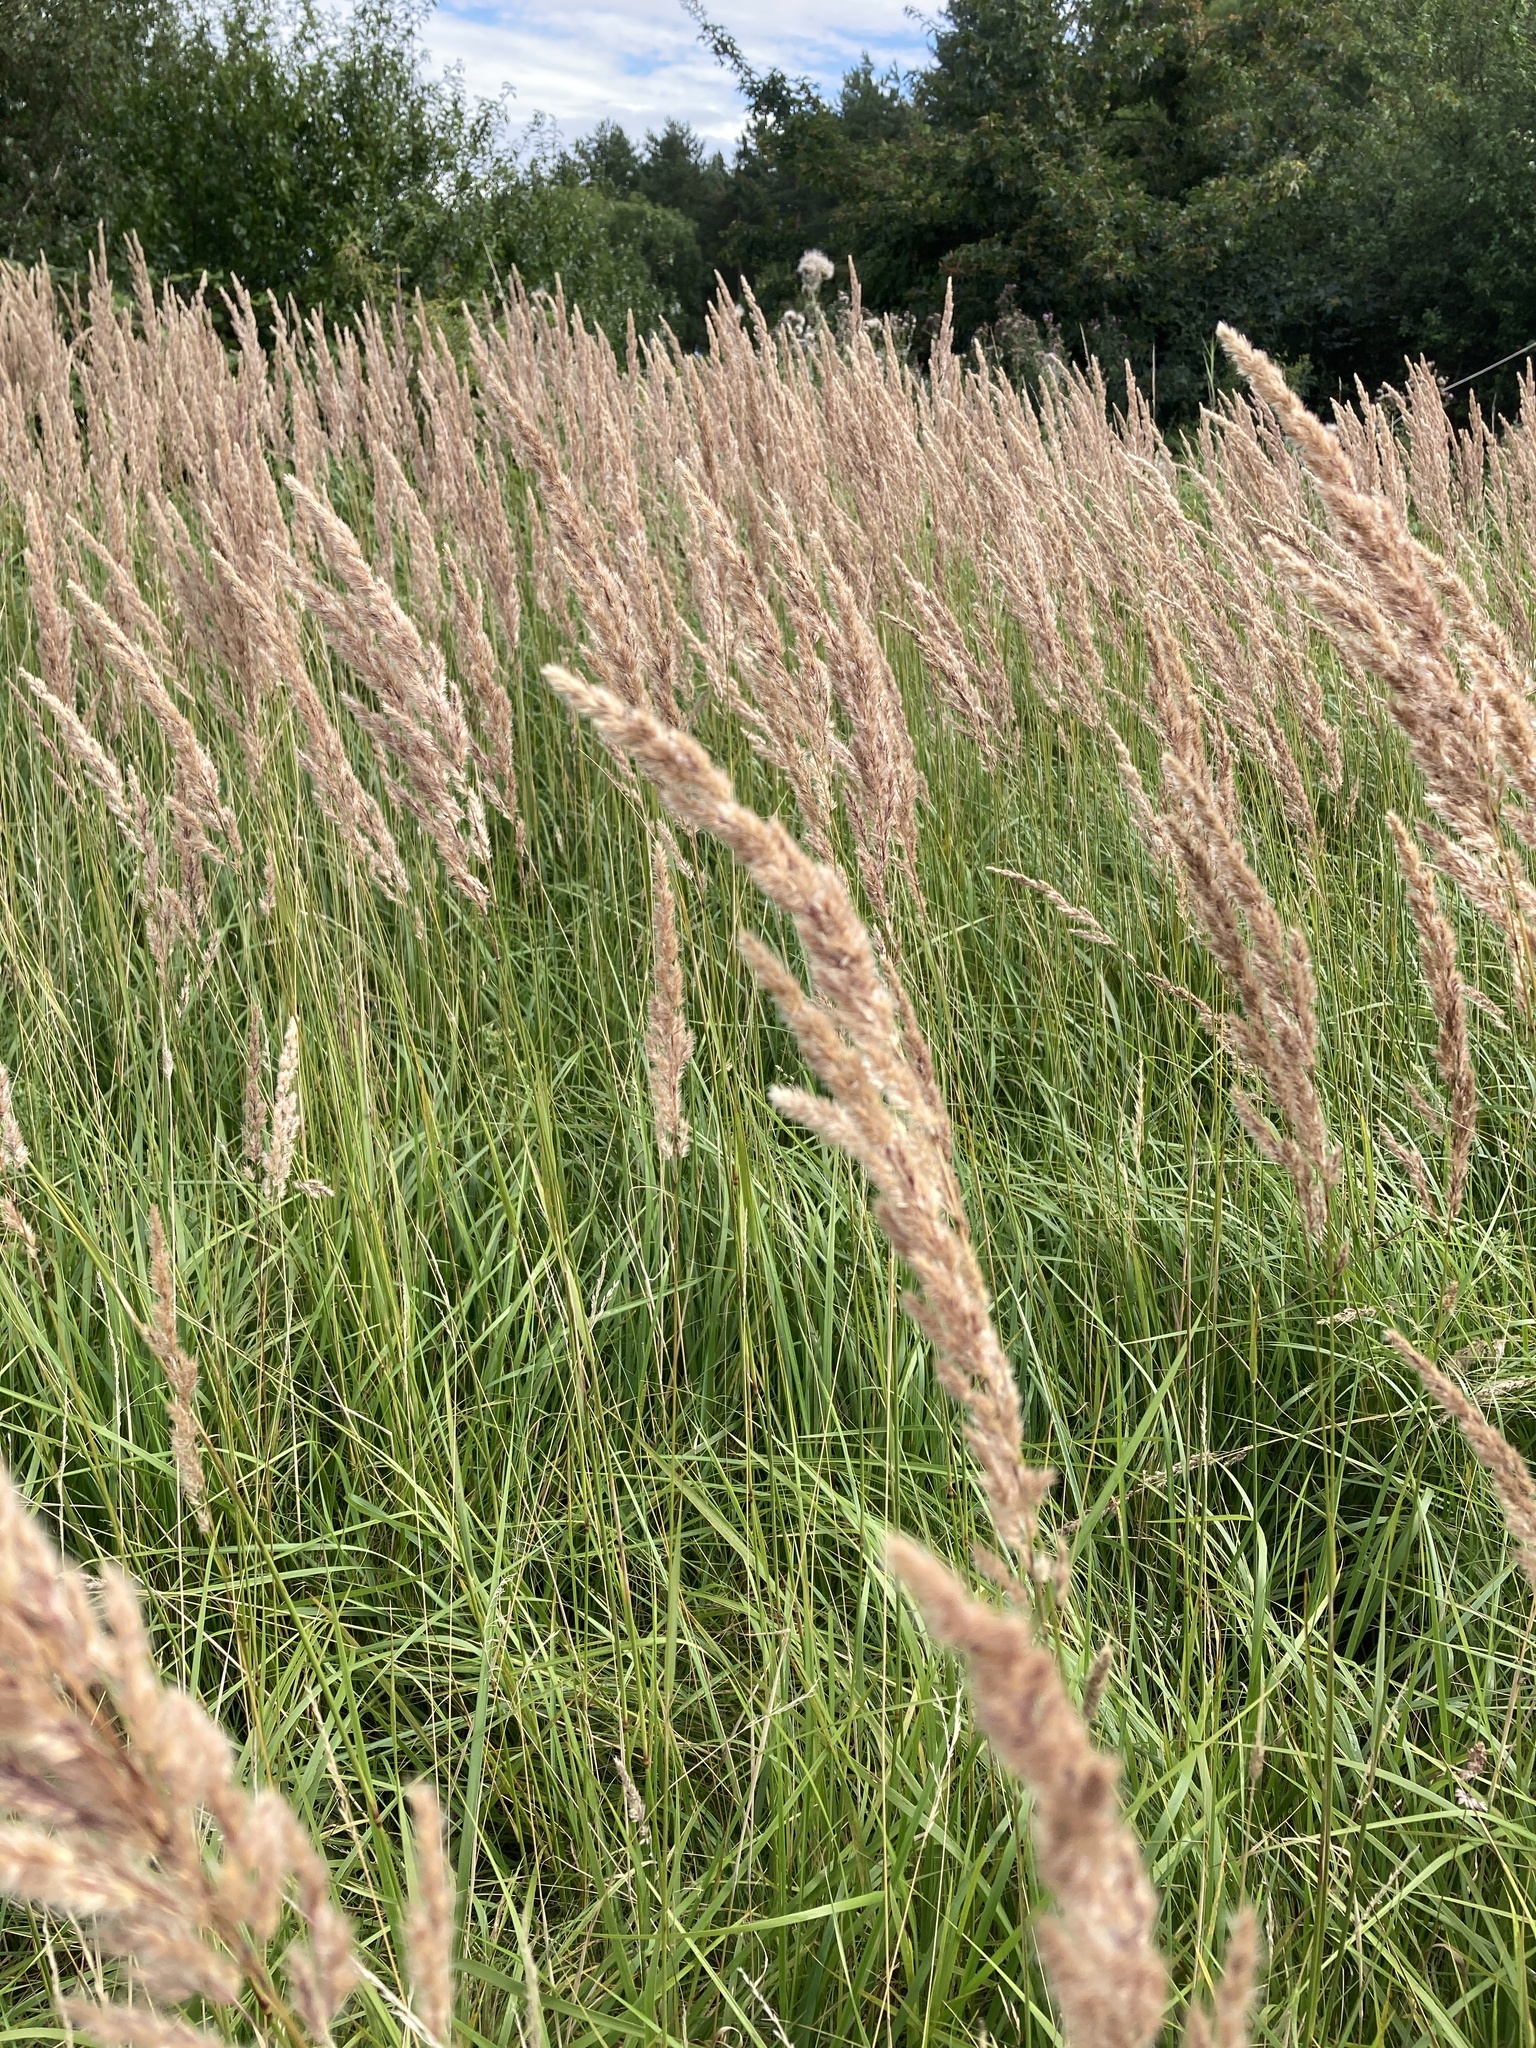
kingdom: Plantae
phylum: Tracheophyta
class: Liliopsida
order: Poales
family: Poaceae
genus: Calamagrostis
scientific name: Calamagrostis epigejos
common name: Wood small-reed
